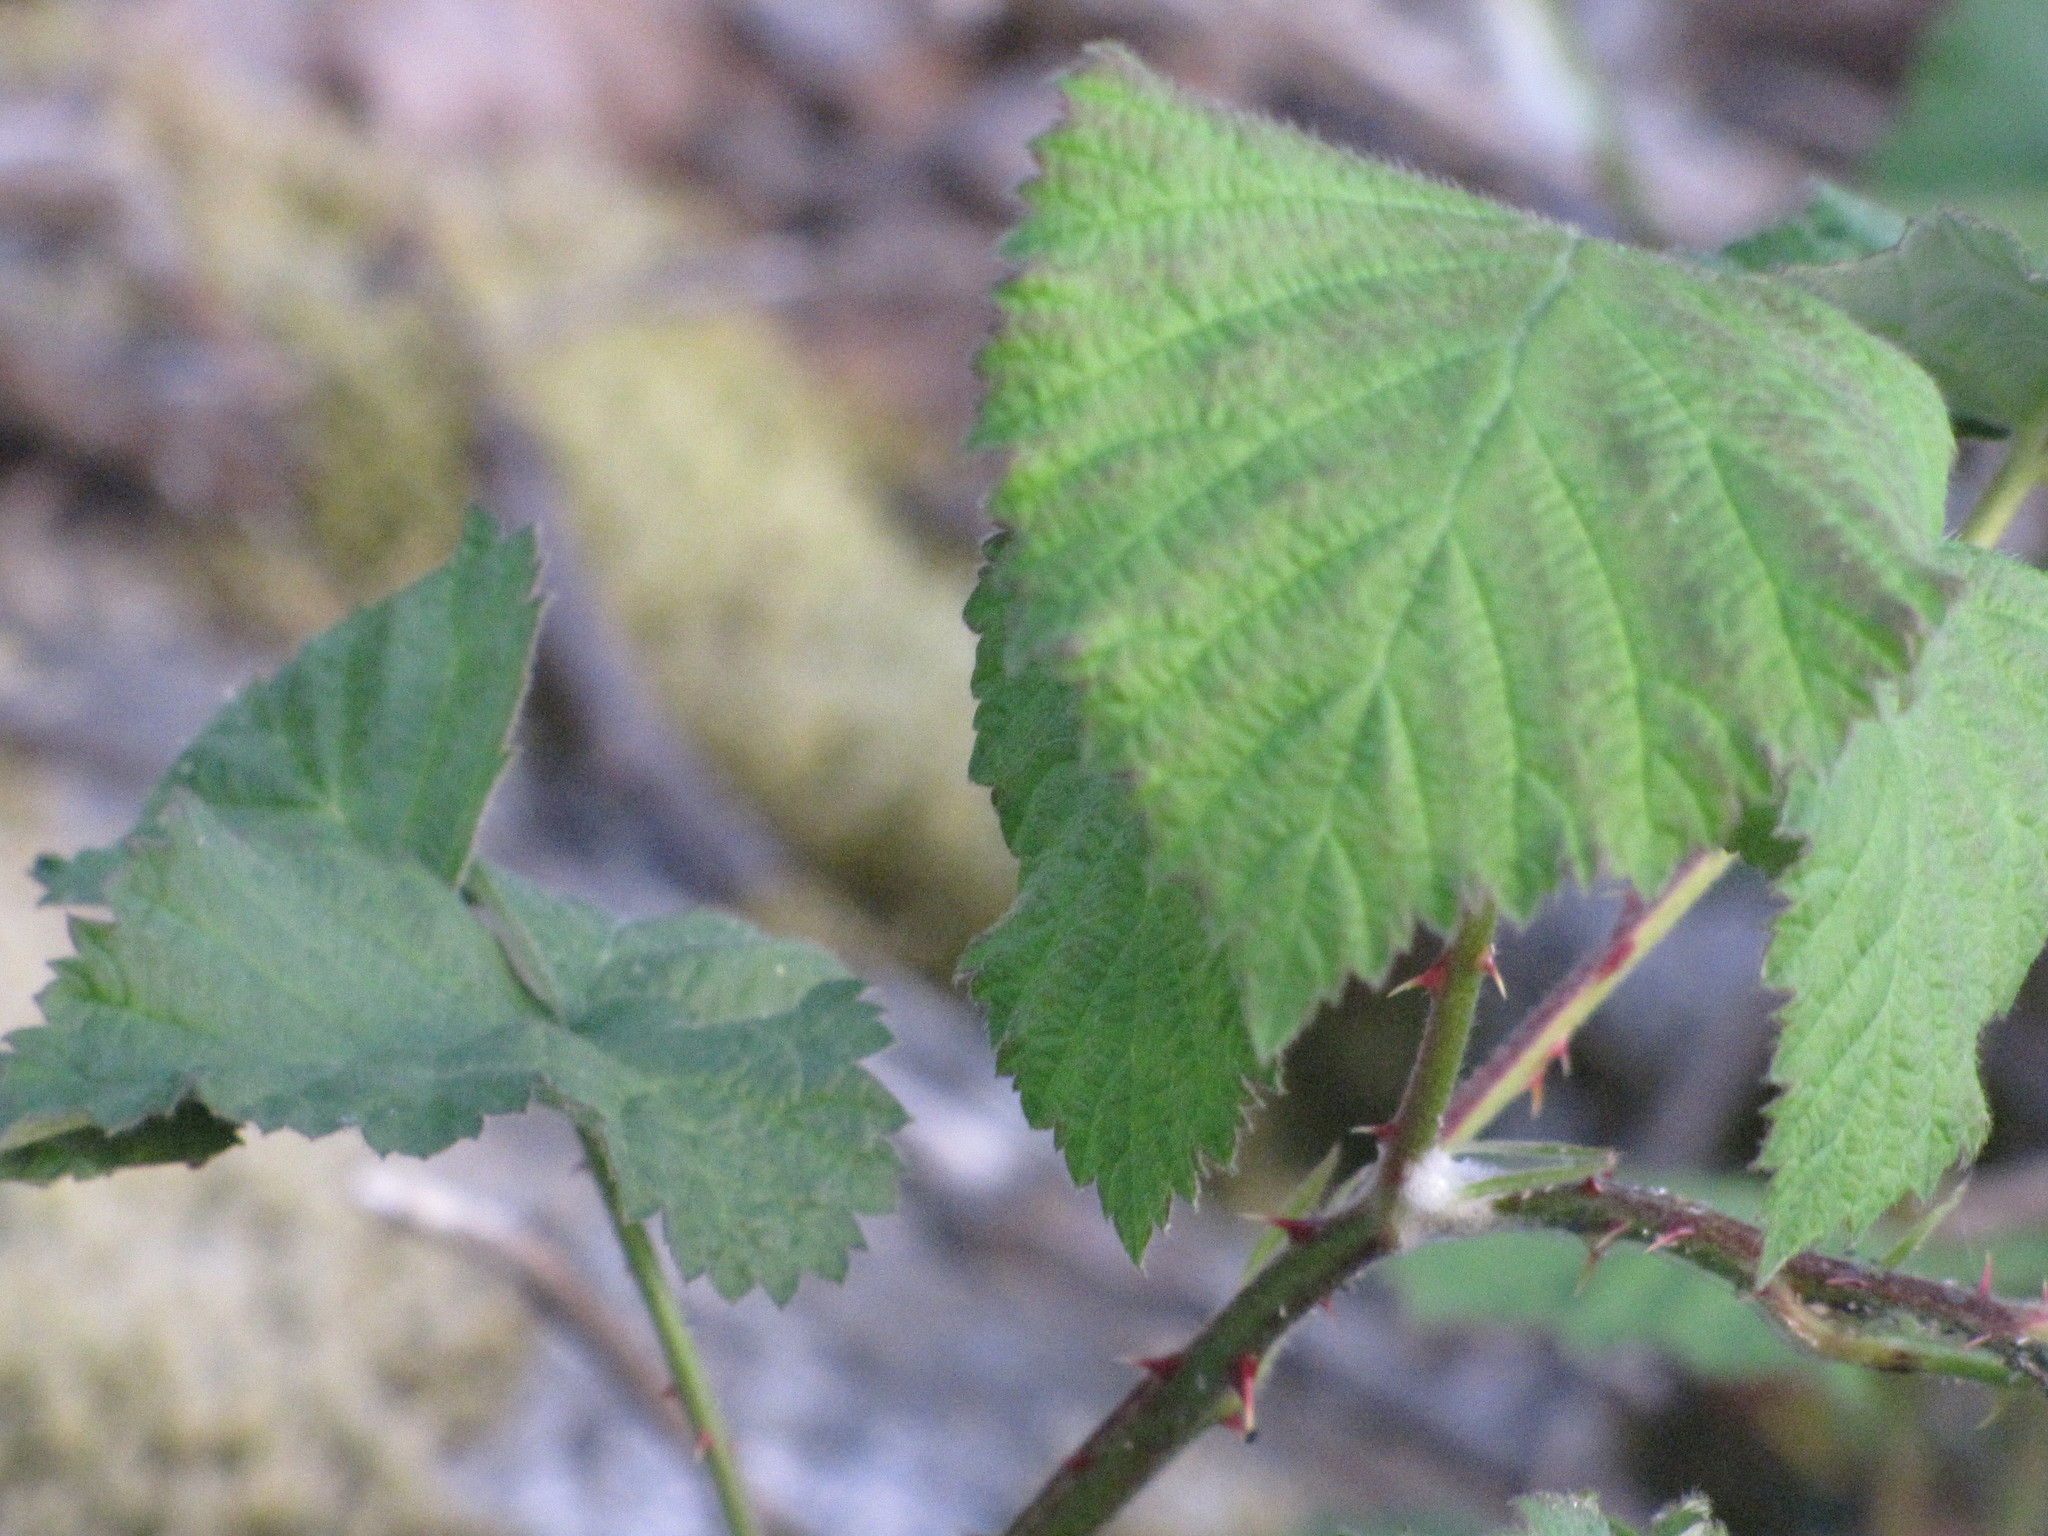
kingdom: Plantae
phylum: Tracheophyta
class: Magnoliopsida
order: Rosales
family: Rosaceae
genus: Rubus
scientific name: Rubus bifrons
